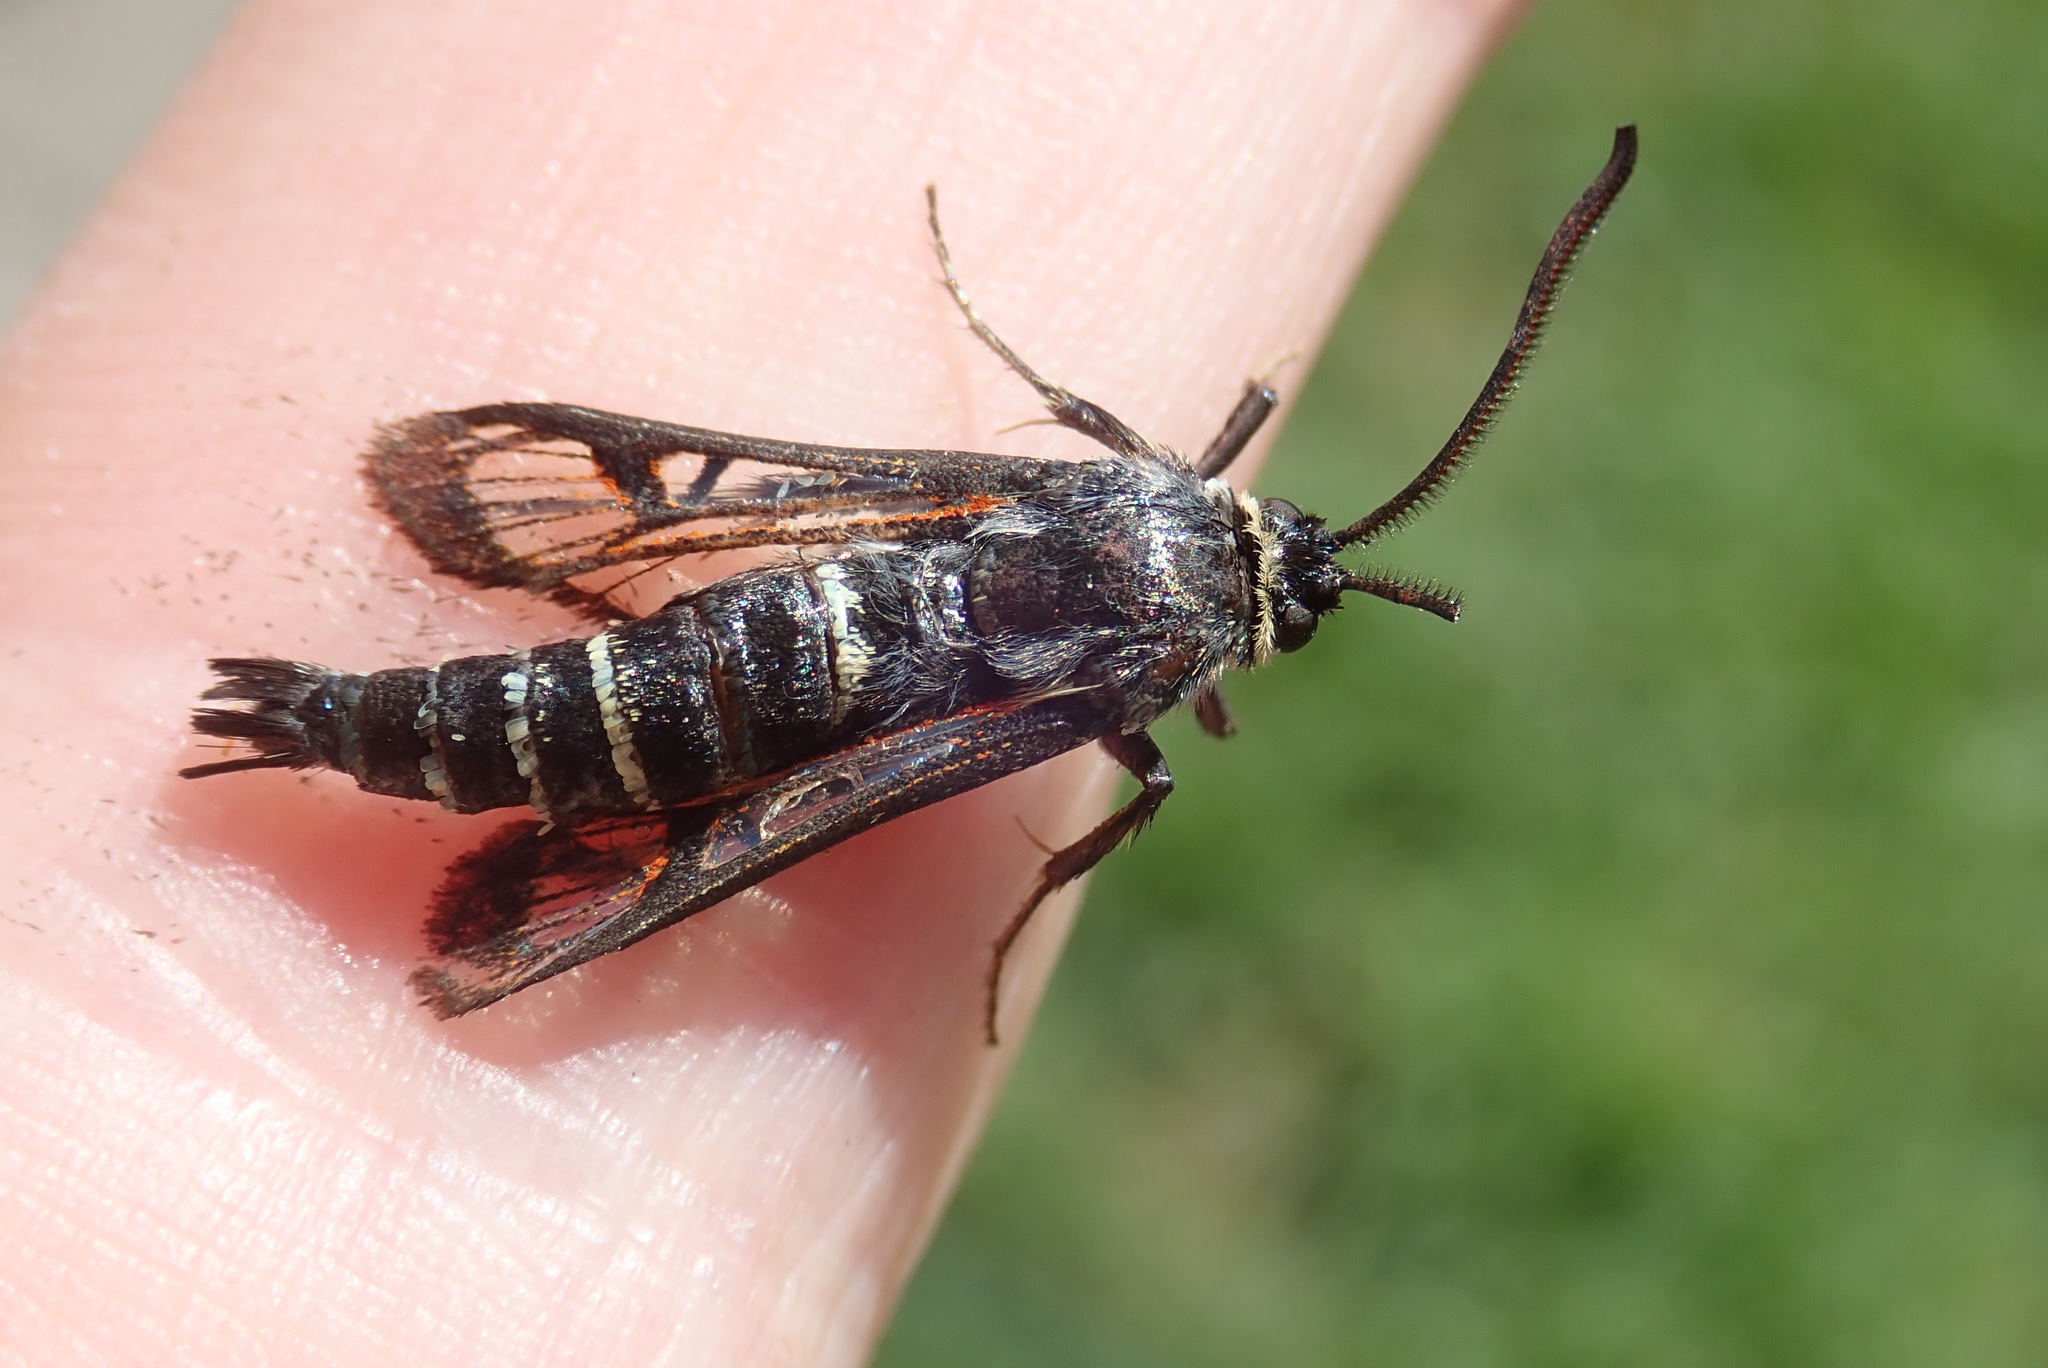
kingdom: Animalia
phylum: Arthropoda
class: Insecta
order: Lepidoptera
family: Sesiidae
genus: Albuna
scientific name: Albuna pyramidalis
